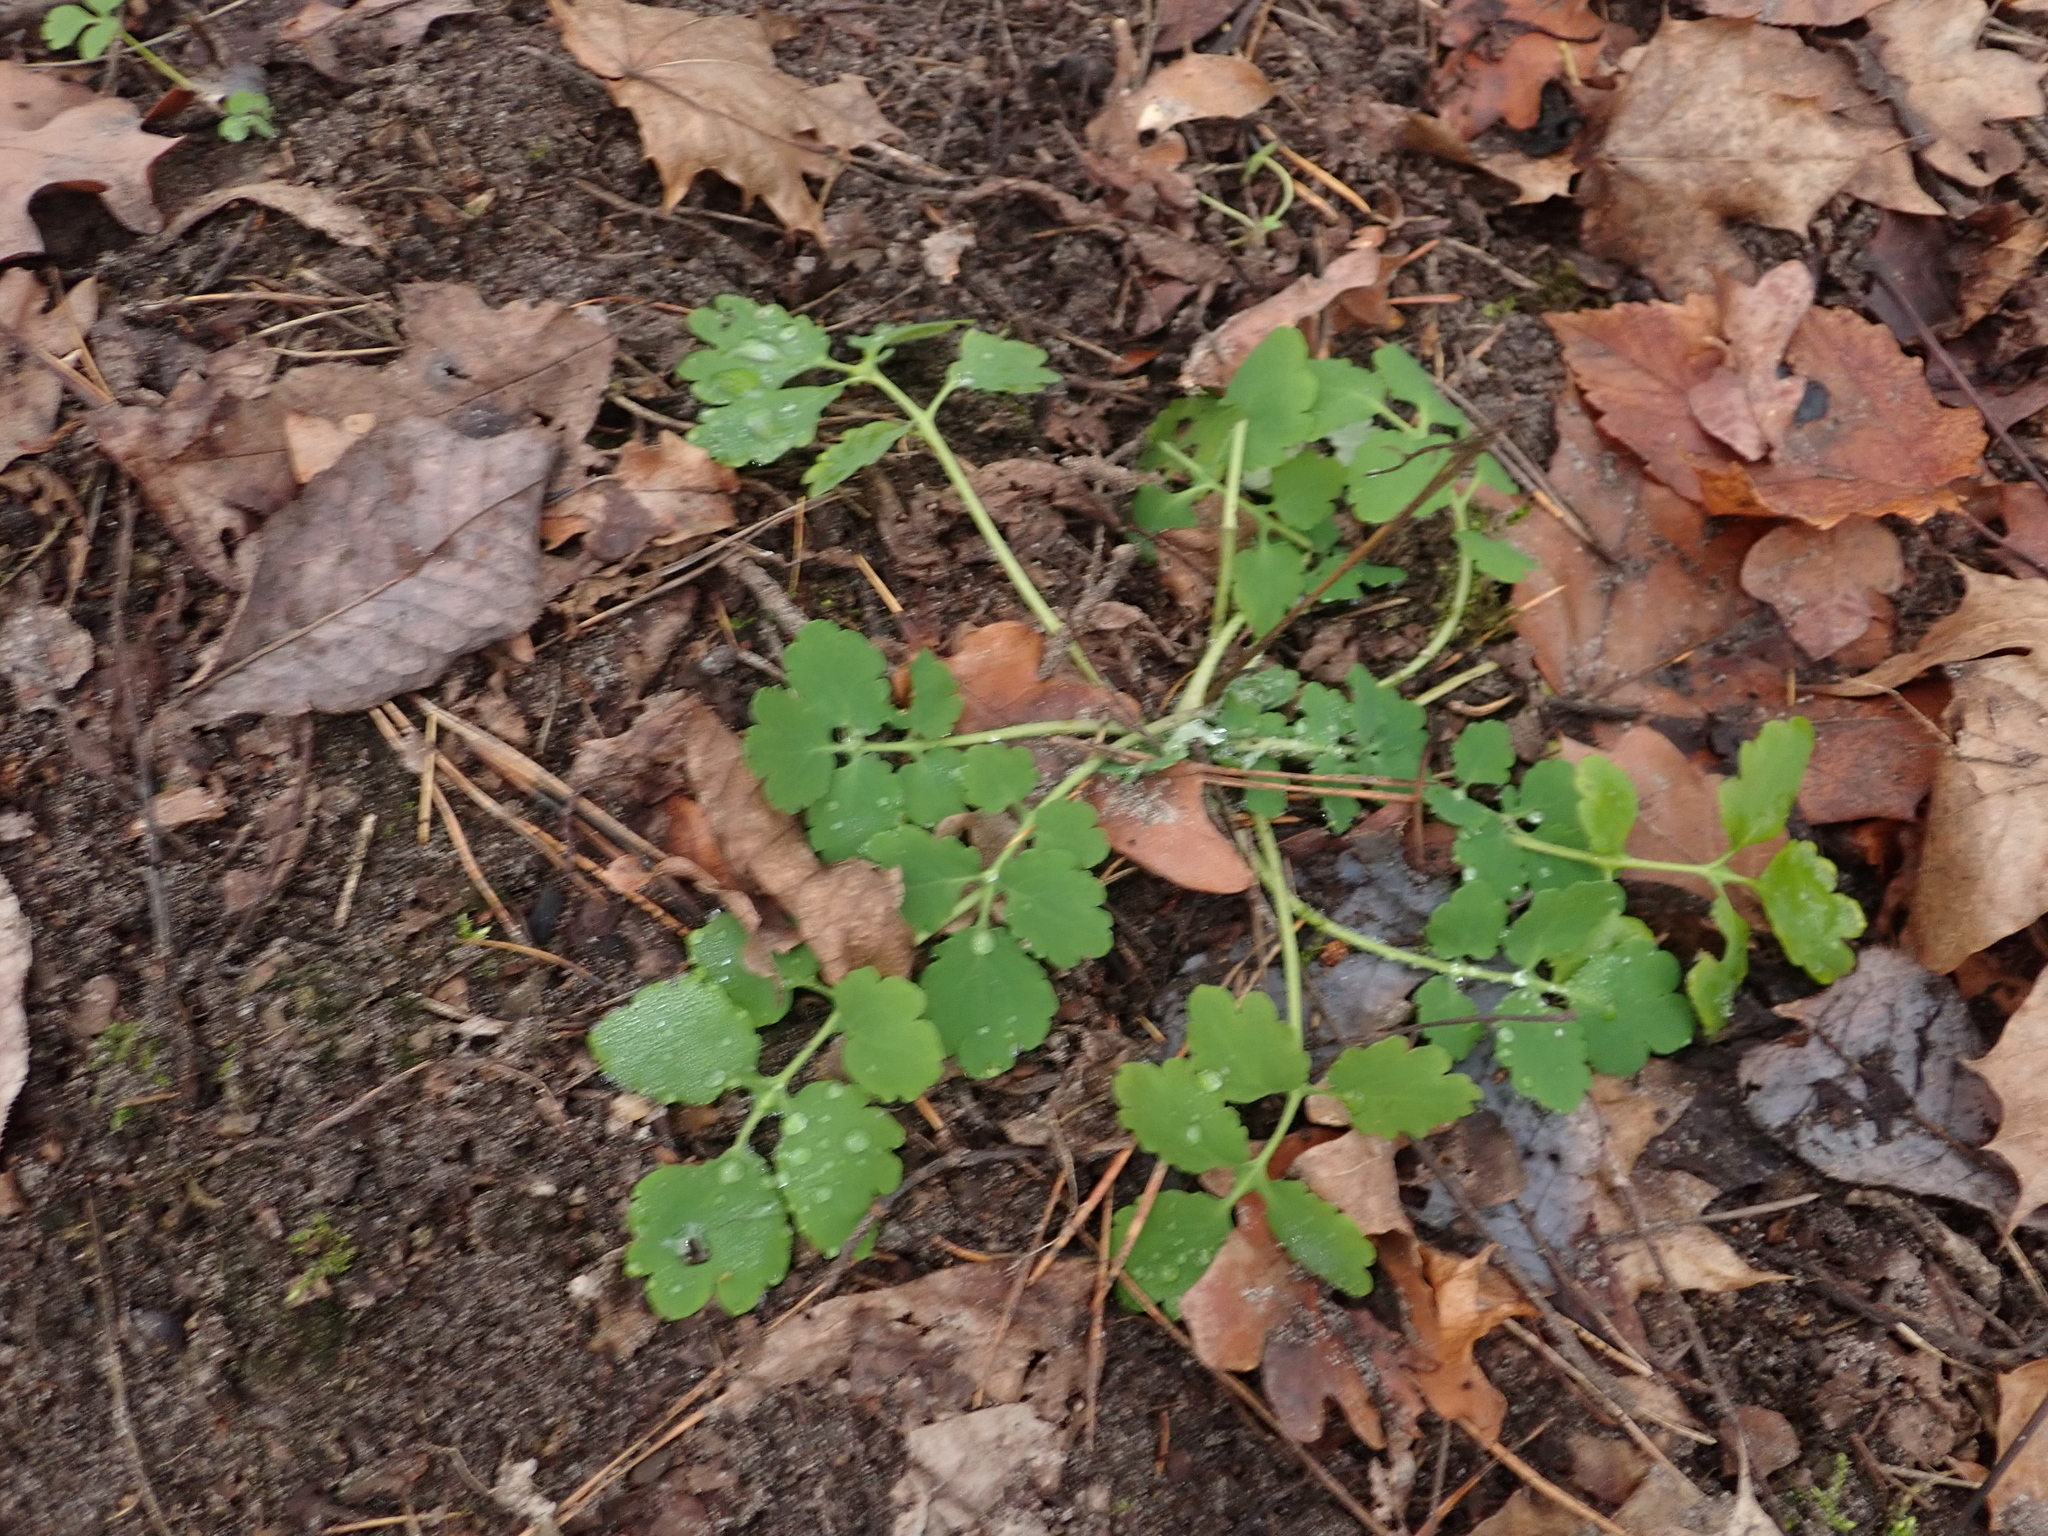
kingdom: Plantae
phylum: Tracheophyta
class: Magnoliopsida
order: Ranunculales
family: Papaveraceae
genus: Chelidonium
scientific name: Chelidonium majus
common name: Greater celandine
